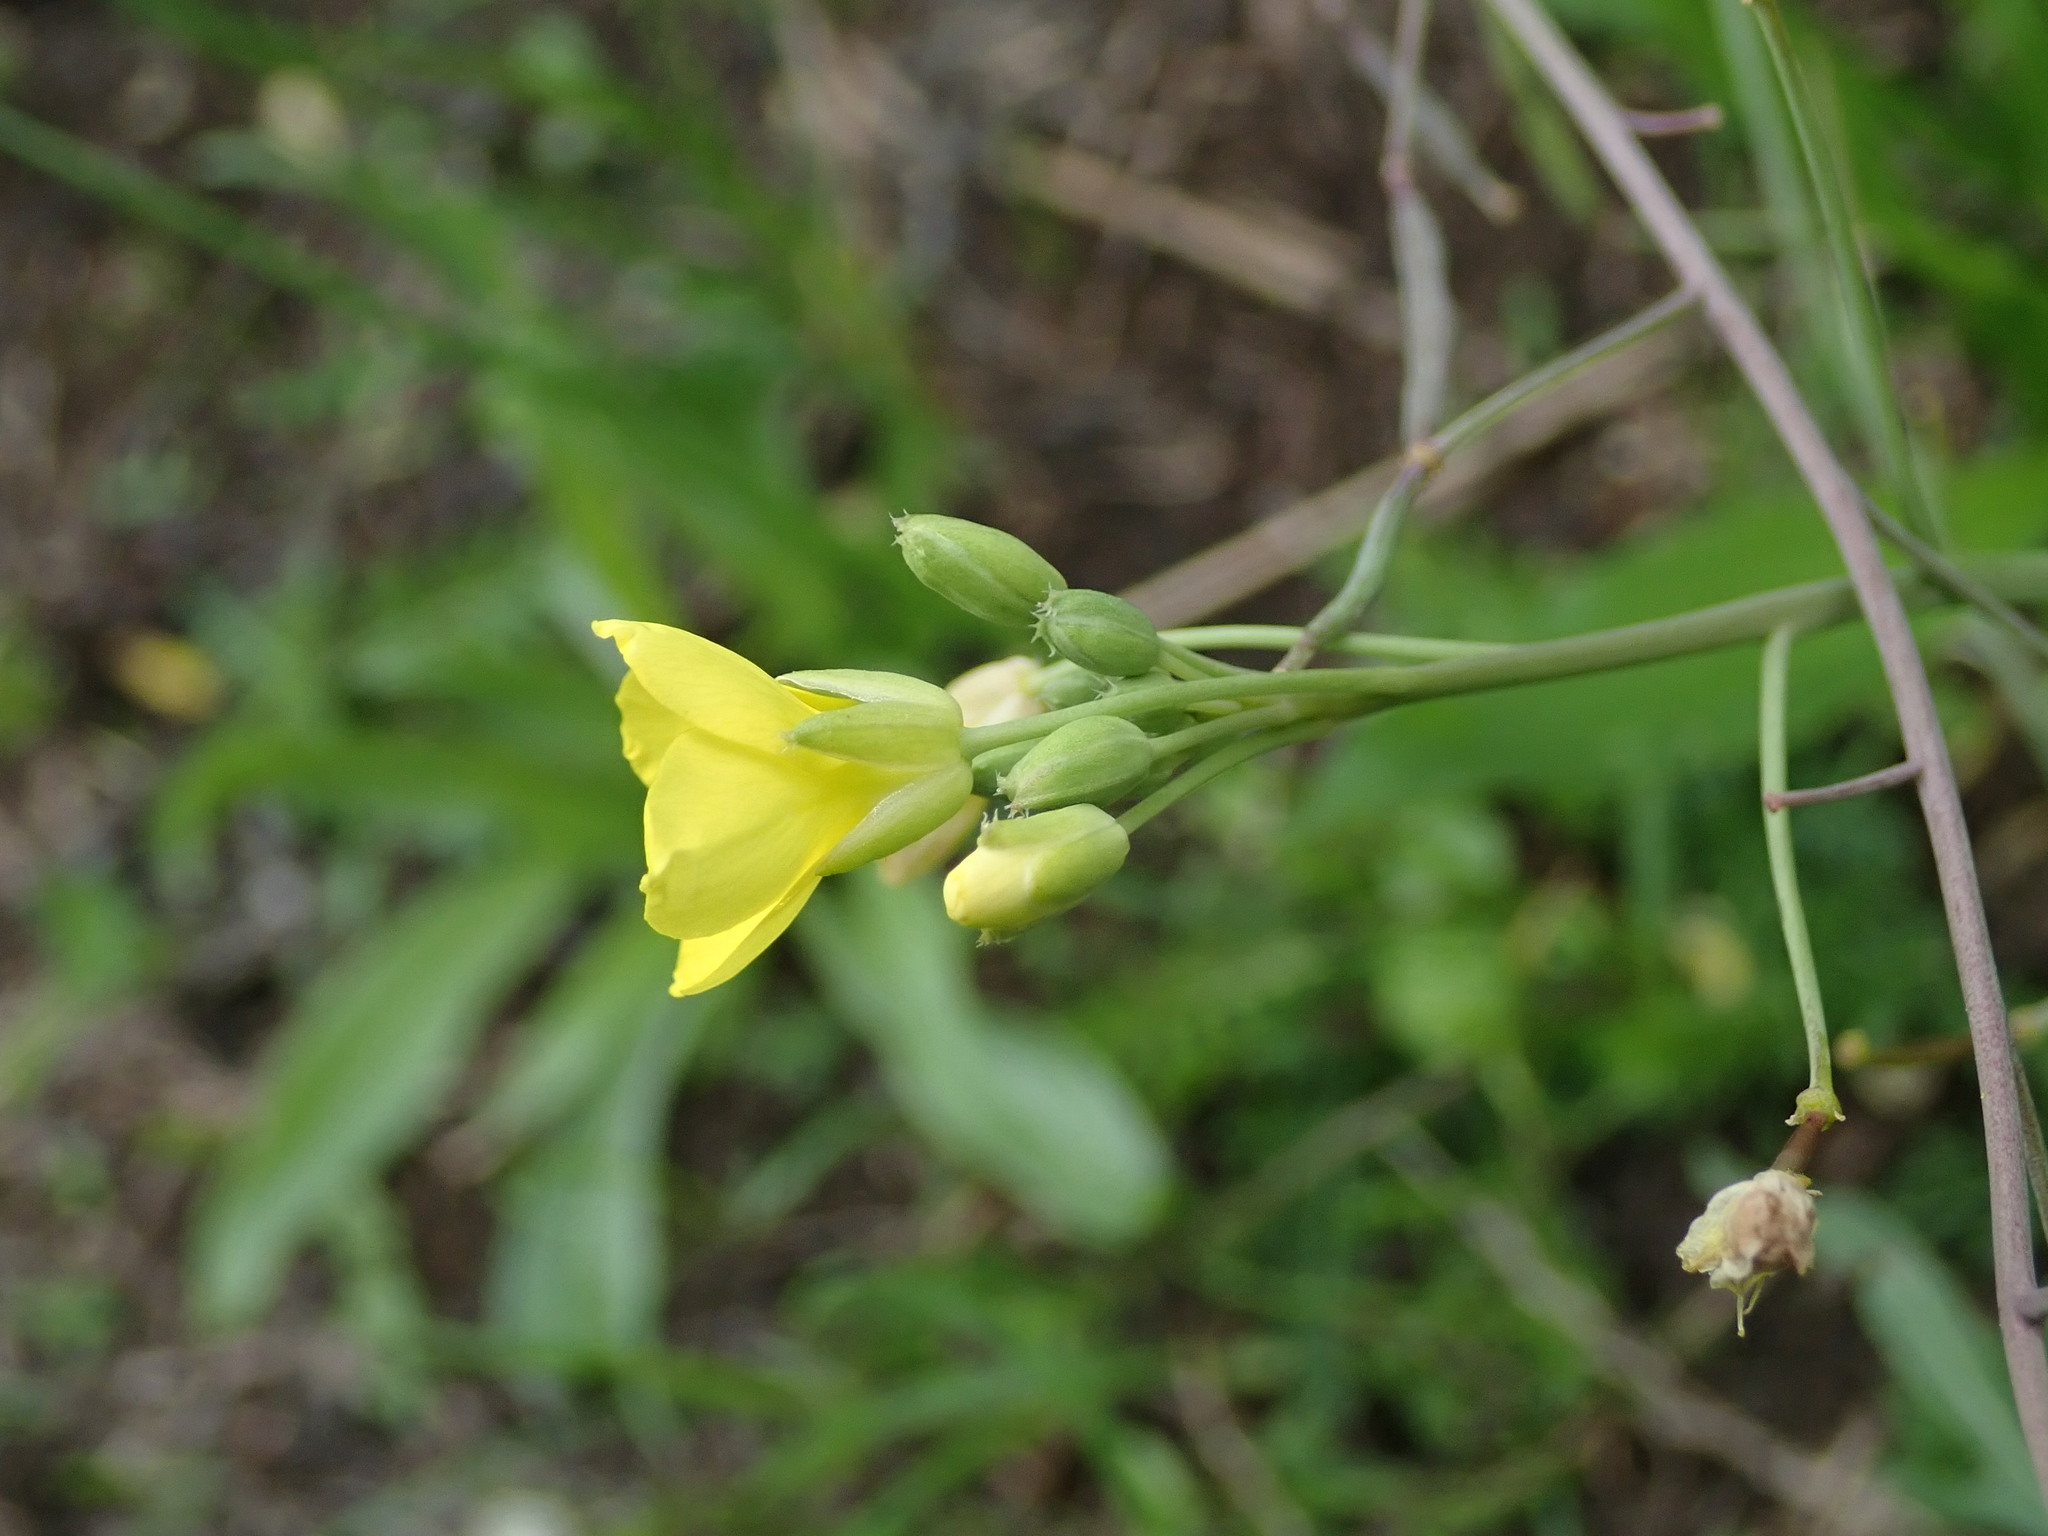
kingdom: Plantae
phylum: Tracheophyta
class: Magnoliopsida
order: Brassicales
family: Brassicaceae
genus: Diplotaxis
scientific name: Diplotaxis tenuifolia
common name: Perennial wall-rocket
